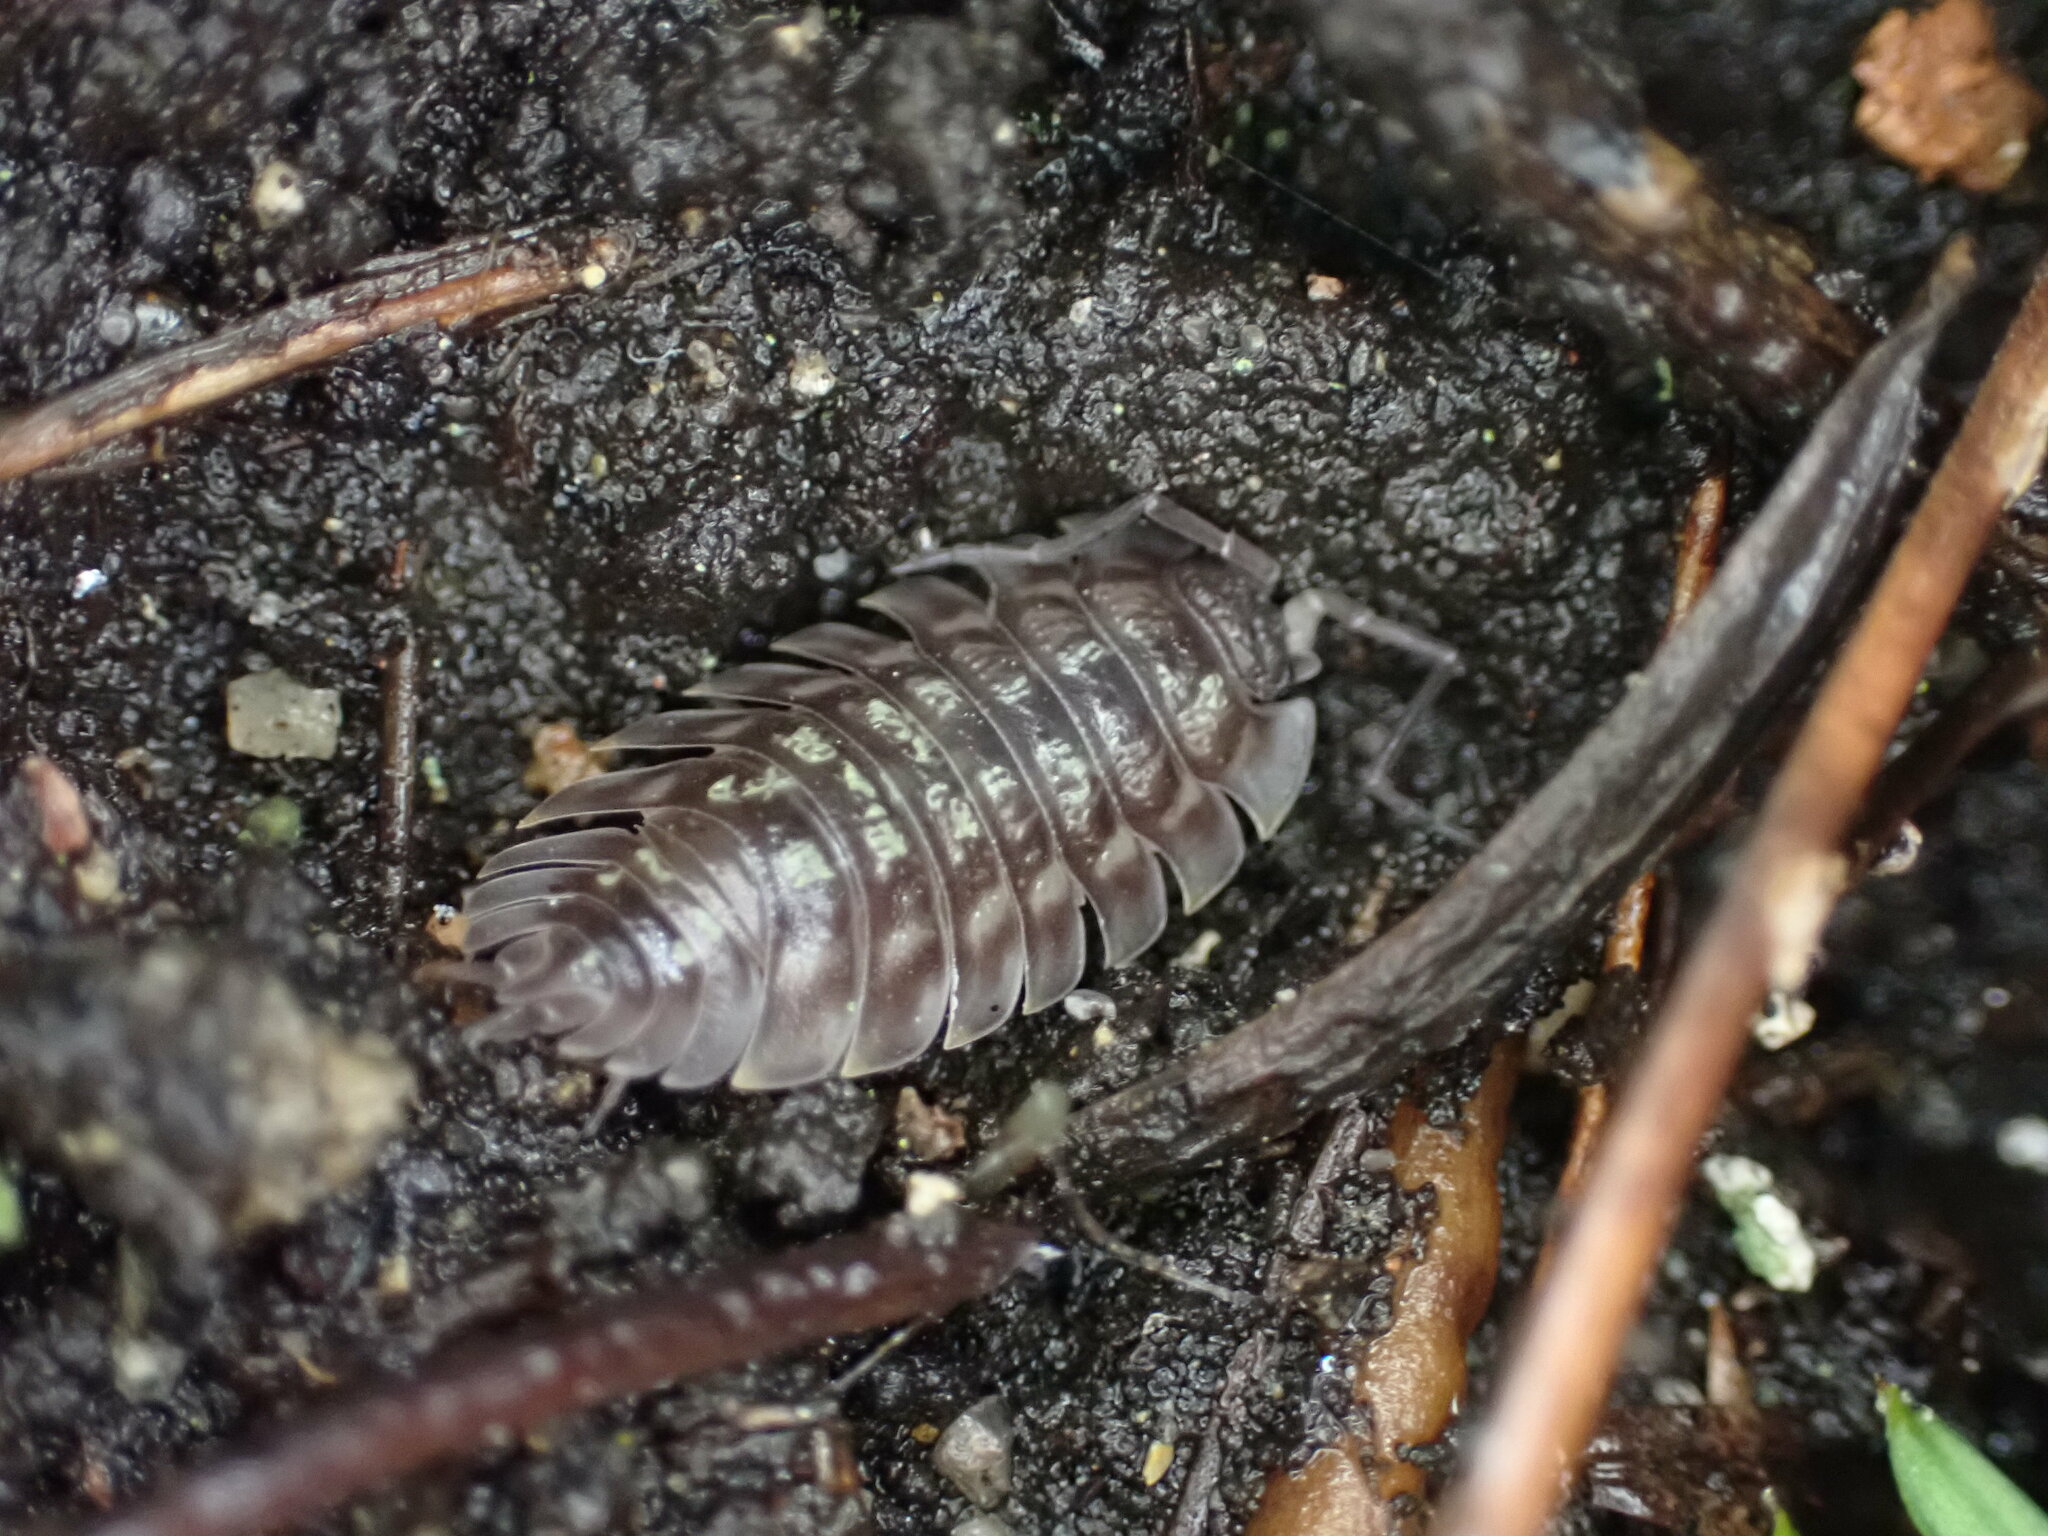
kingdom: Animalia
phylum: Arthropoda
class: Malacostraca
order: Isopoda
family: Oniscidae
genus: Oniscus
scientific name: Oniscus asellus
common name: Common shiny woodlouse
